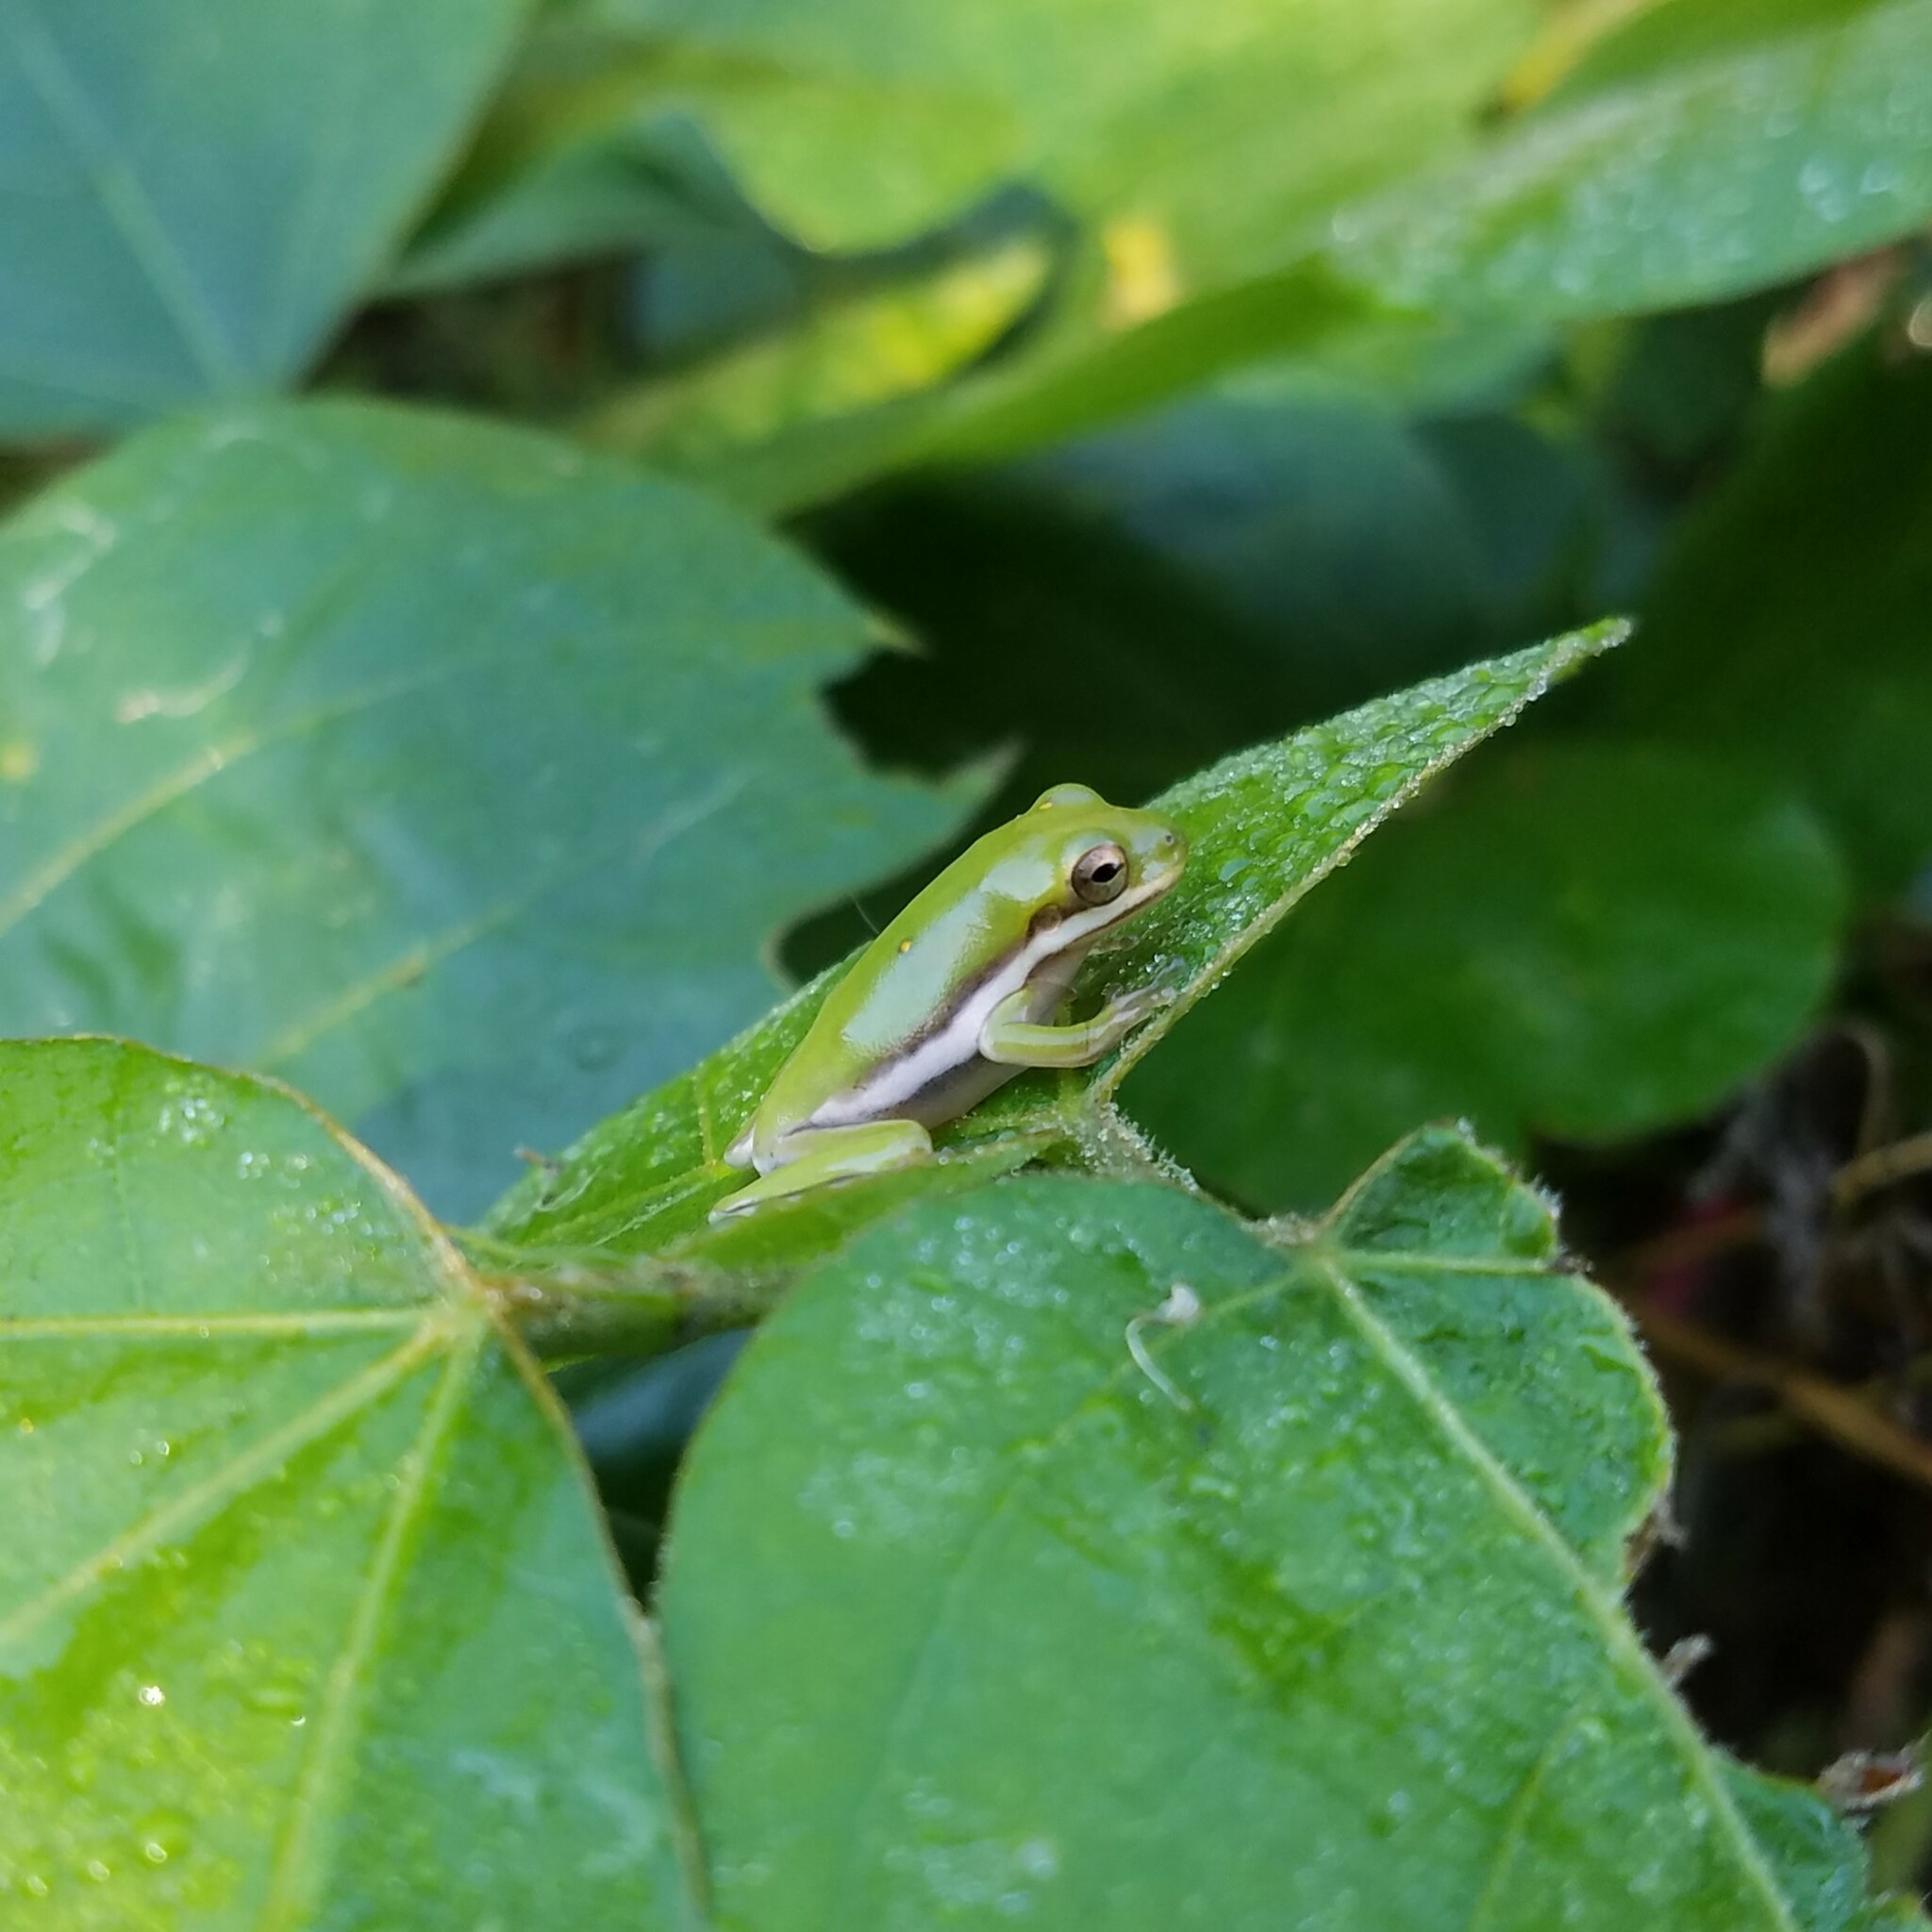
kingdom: Animalia
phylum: Chordata
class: Amphibia
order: Anura
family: Hylidae
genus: Dryophytes
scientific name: Dryophytes cinereus
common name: Green treefrog
